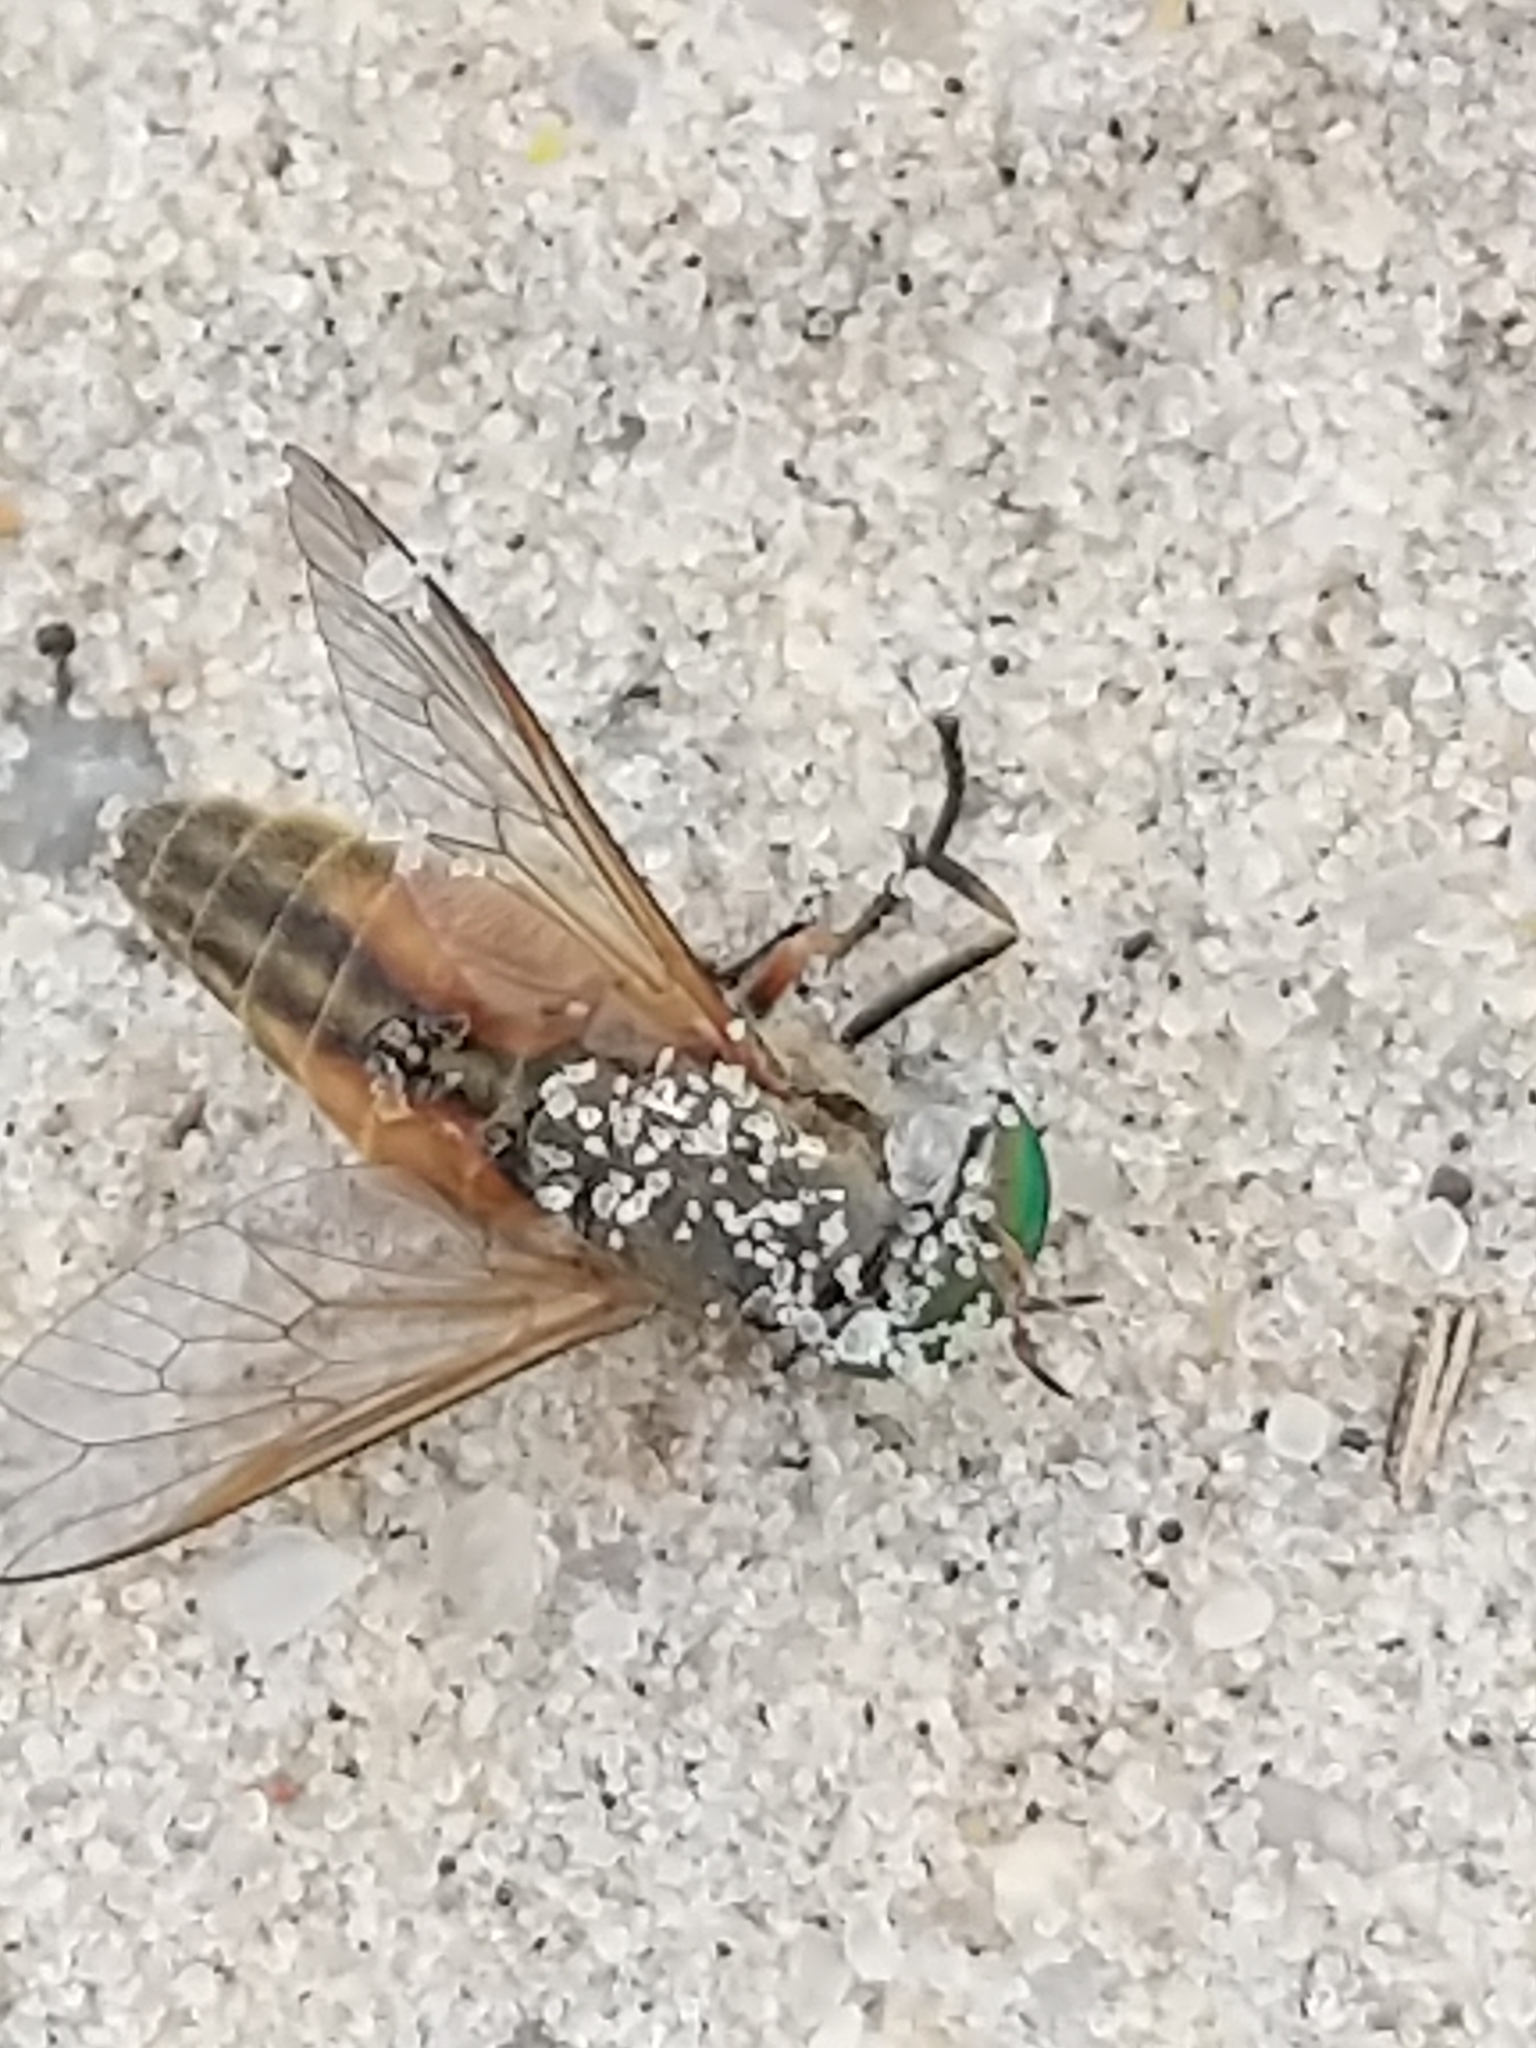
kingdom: Animalia
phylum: Arthropoda
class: Insecta
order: Diptera
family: Tabanidae
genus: Tabanus
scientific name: Tabanus
